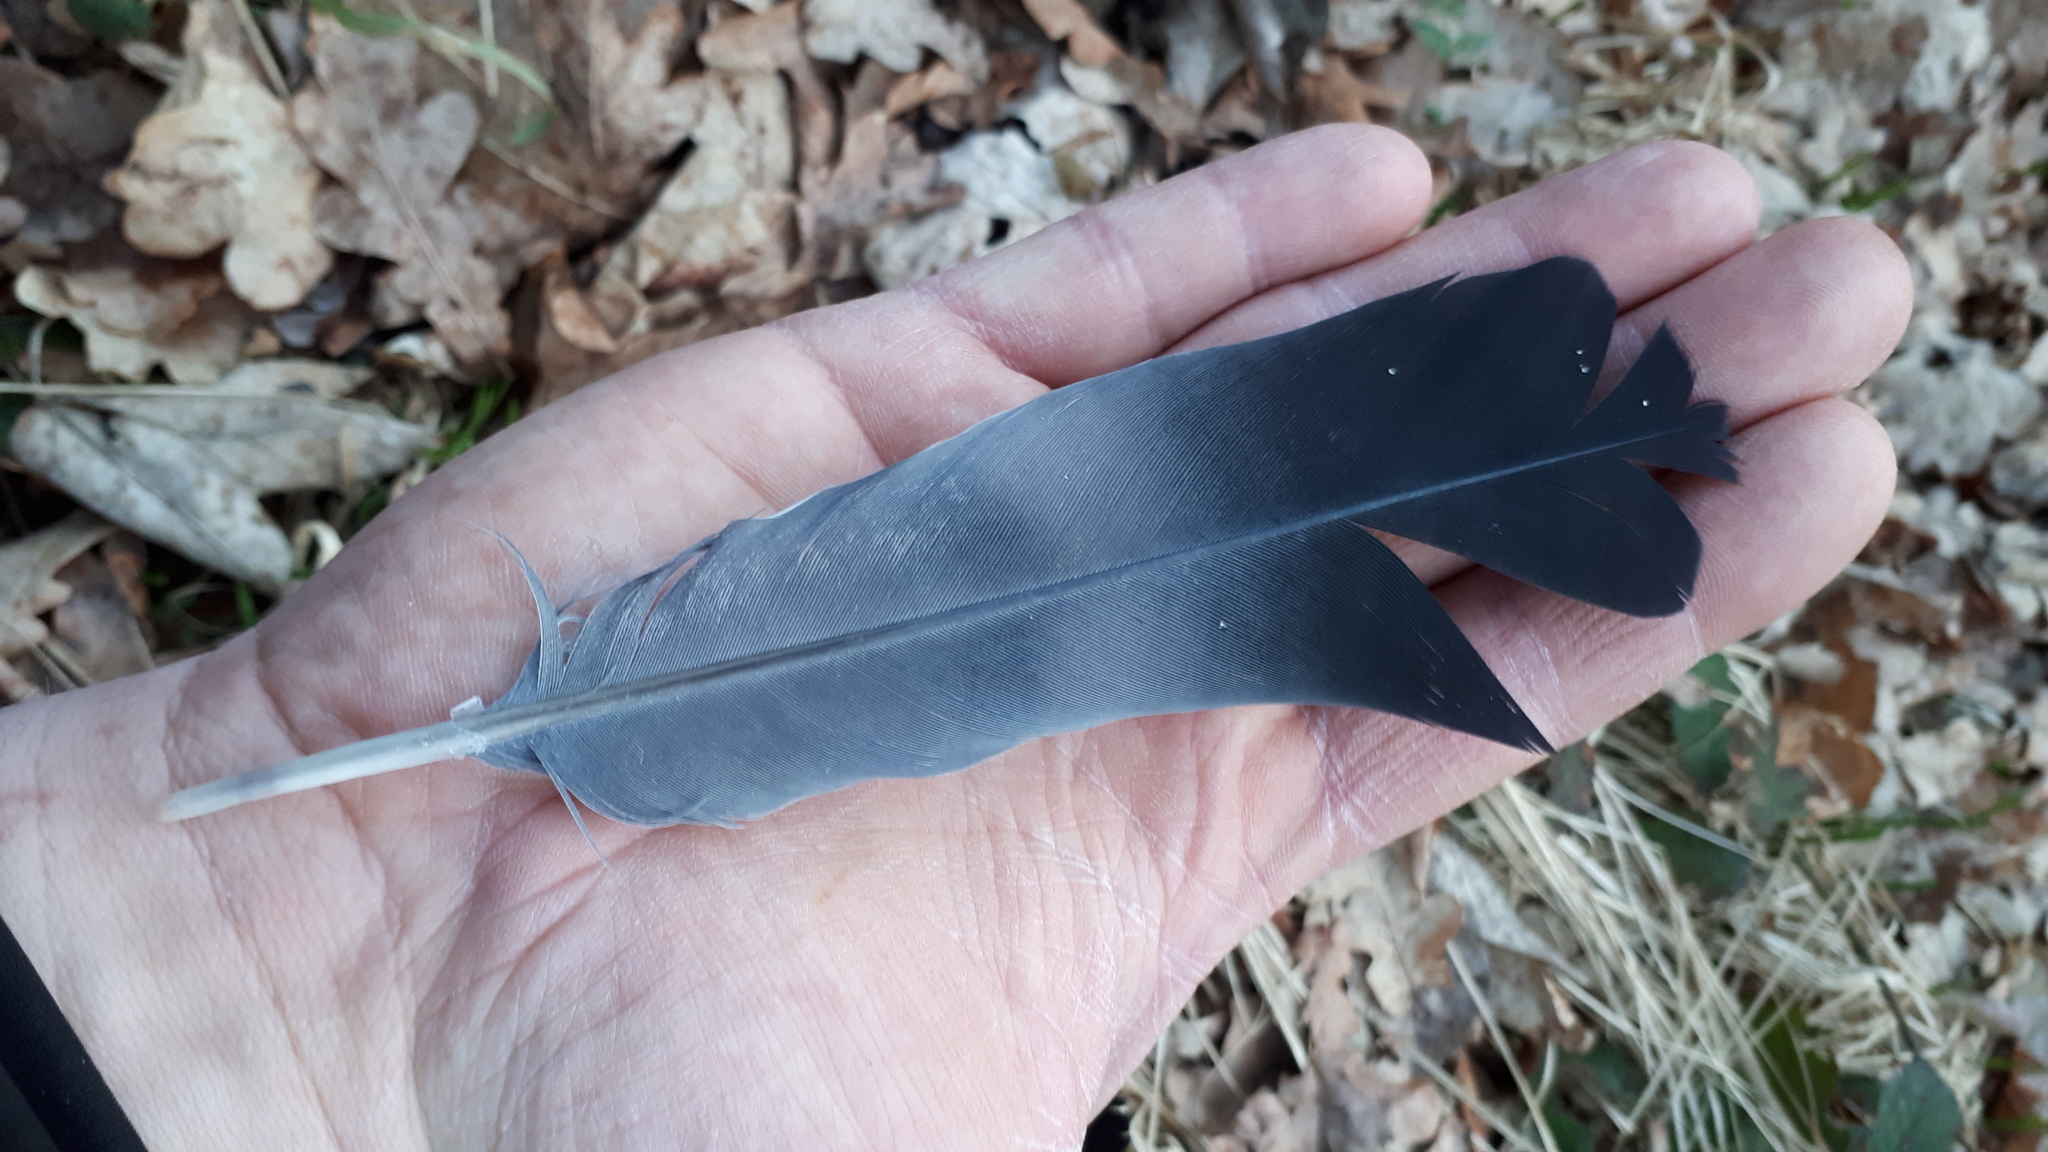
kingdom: Animalia
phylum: Chordata
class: Aves
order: Columbiformes
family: Columbidae
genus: Columba
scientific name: Columba palumbus
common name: Common wood pigeon
